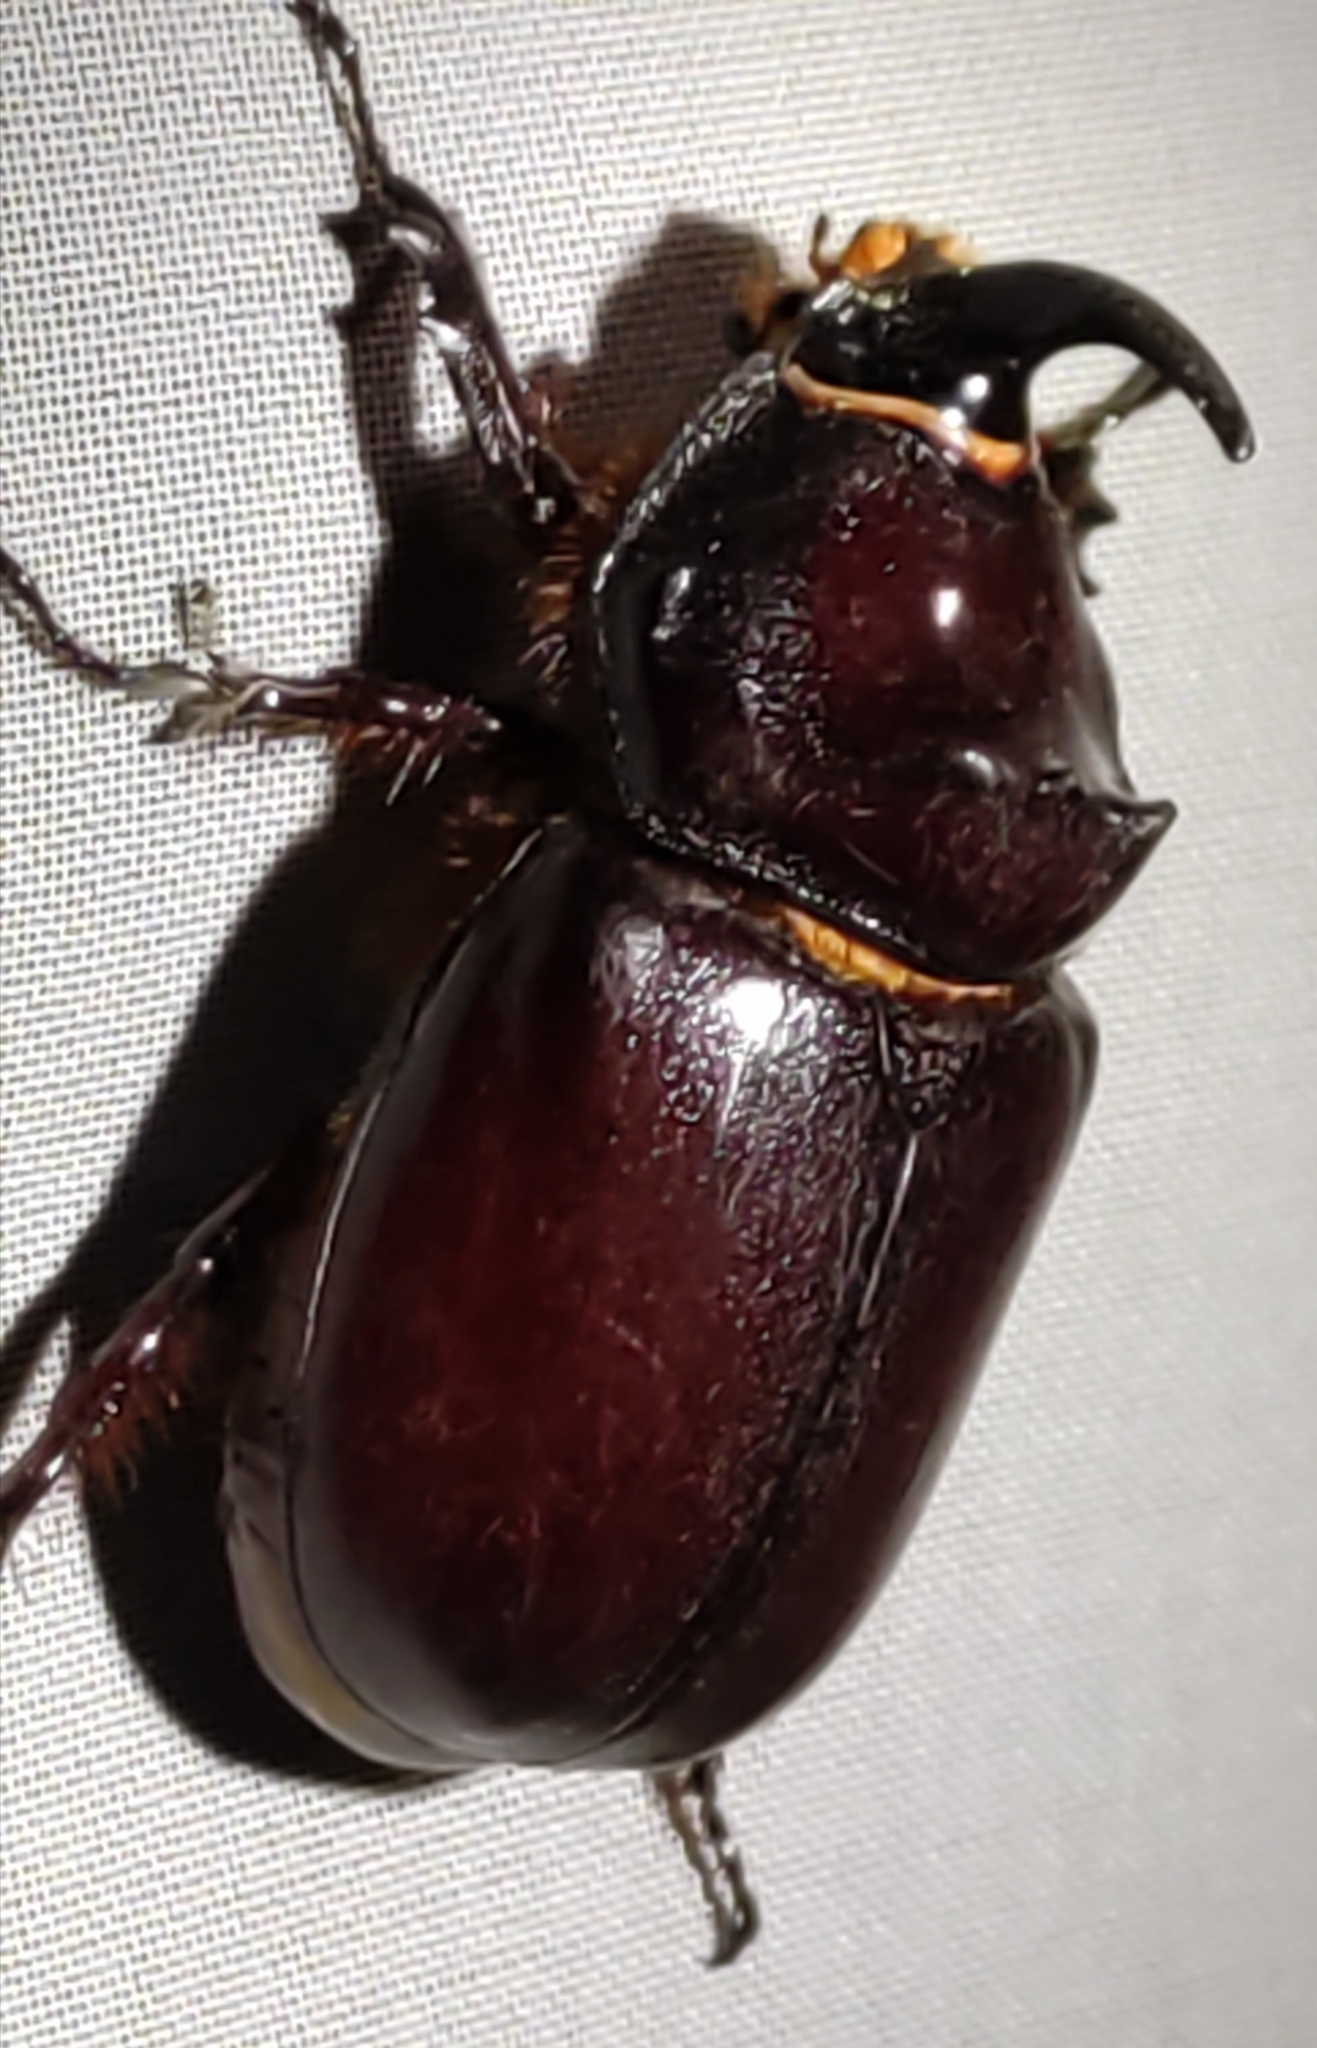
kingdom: Animalia
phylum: Arthropoda
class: Insecta
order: Coleoptera
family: Scarabaeidae
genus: Oryctes
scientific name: Oryctes nasicornis
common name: European rhinoceros beetle
